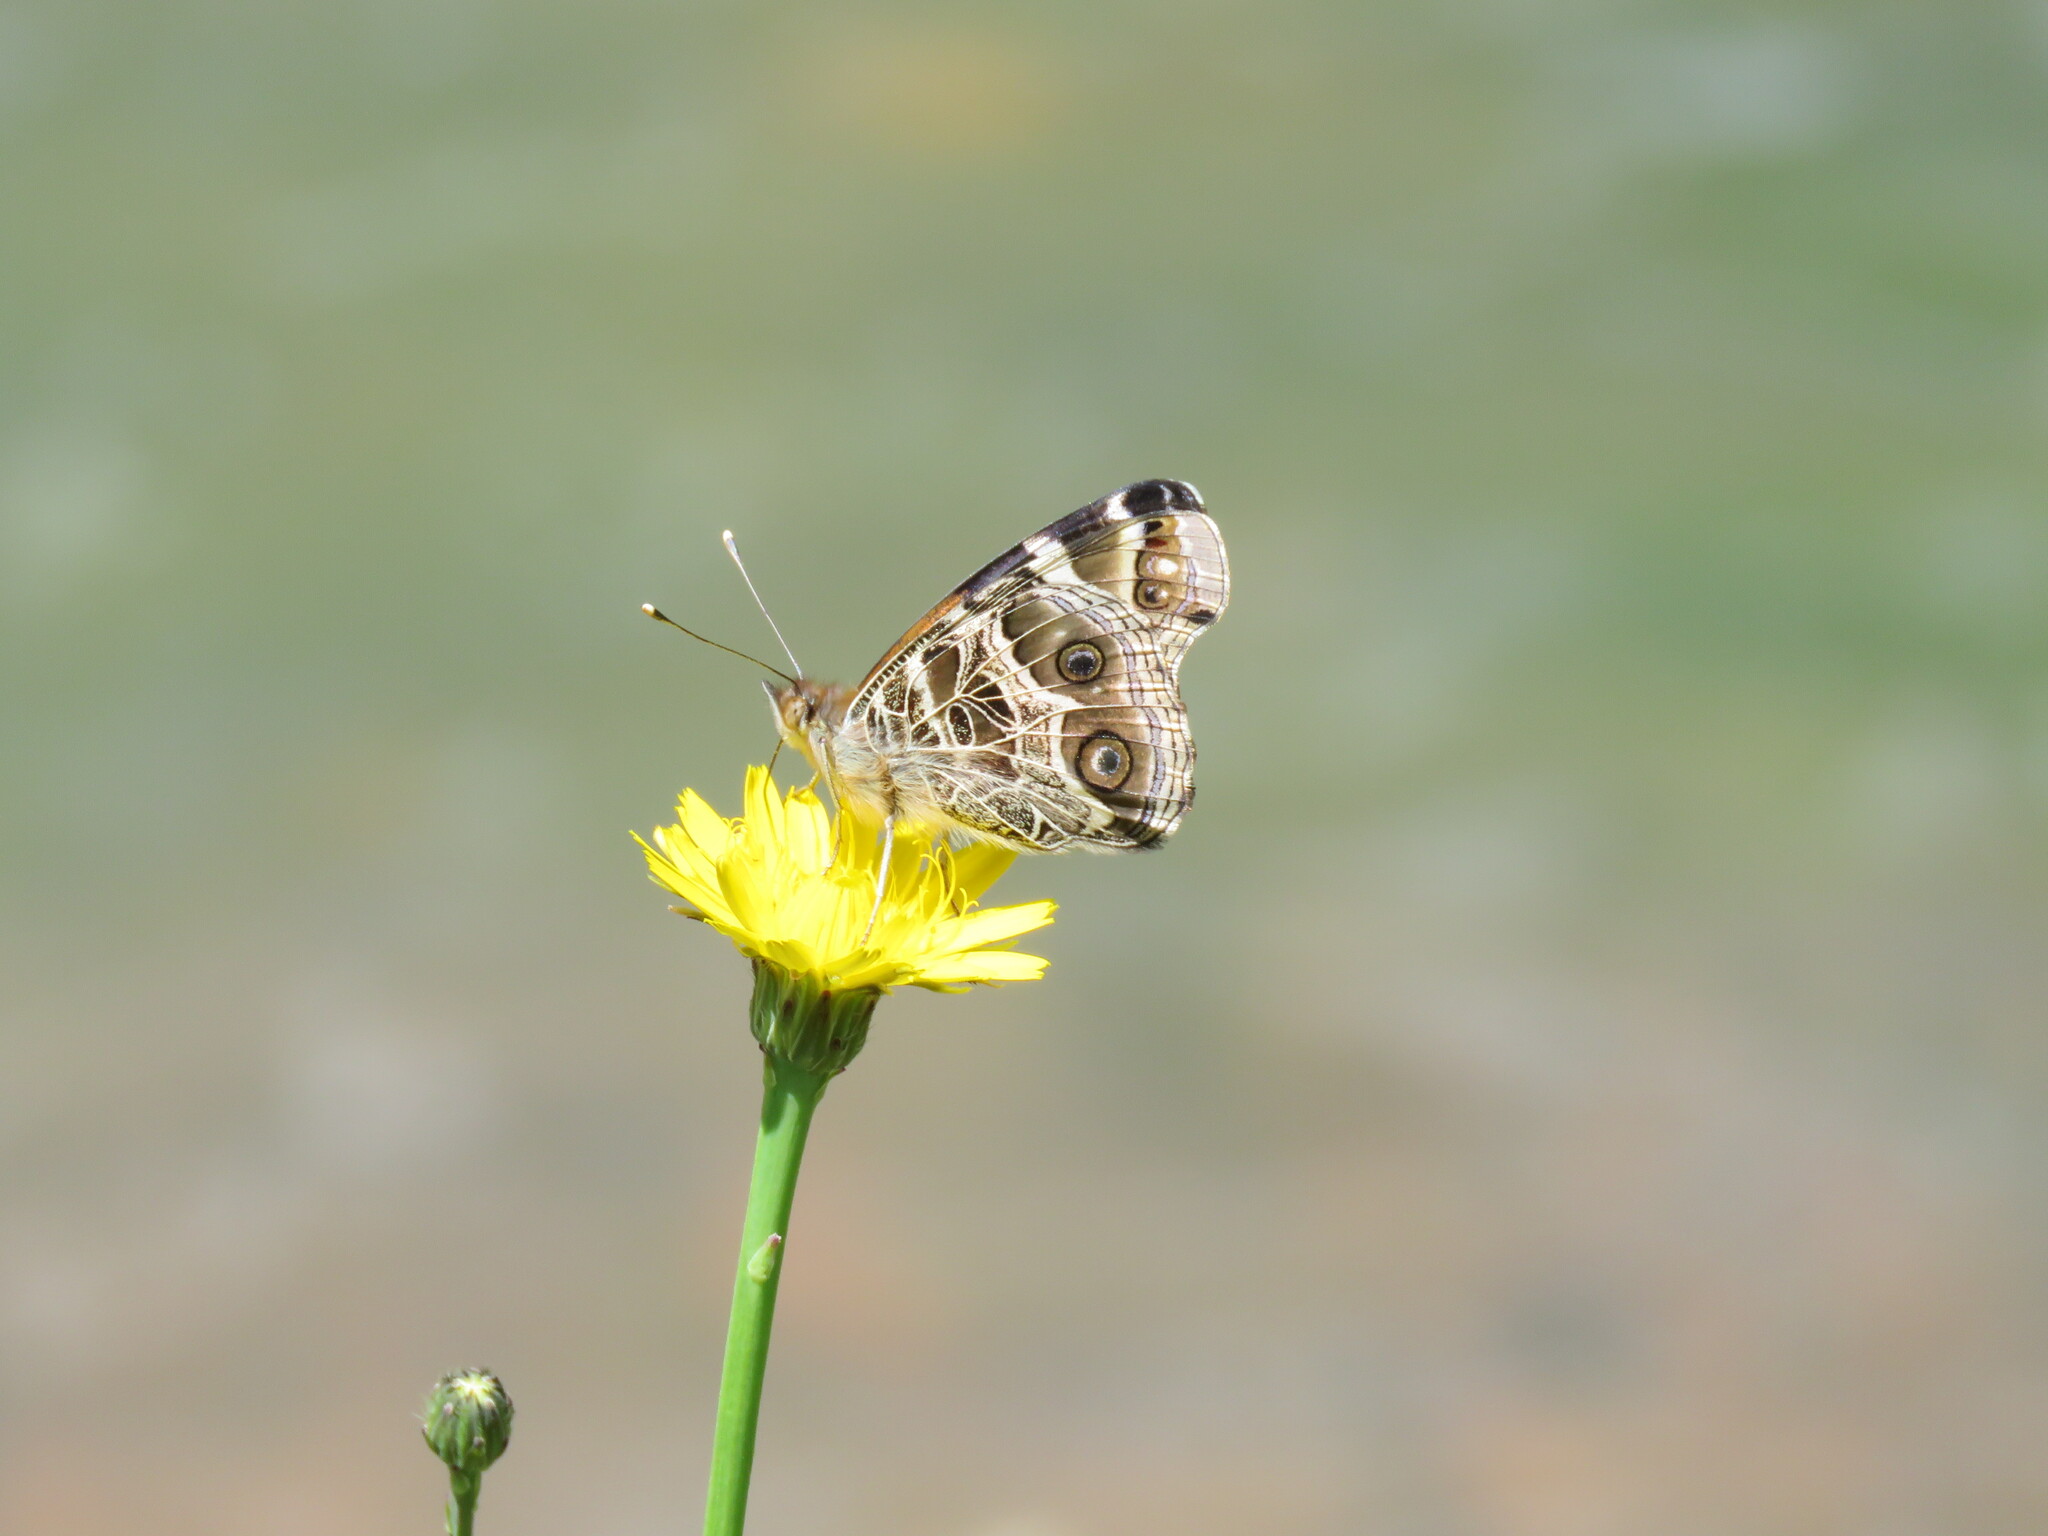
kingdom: Animalia
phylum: Arthropoda
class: Insecta
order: Lepidoptera
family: Nymphalidae
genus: Vanessa
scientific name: Vanessa virginiensis
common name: American lady
